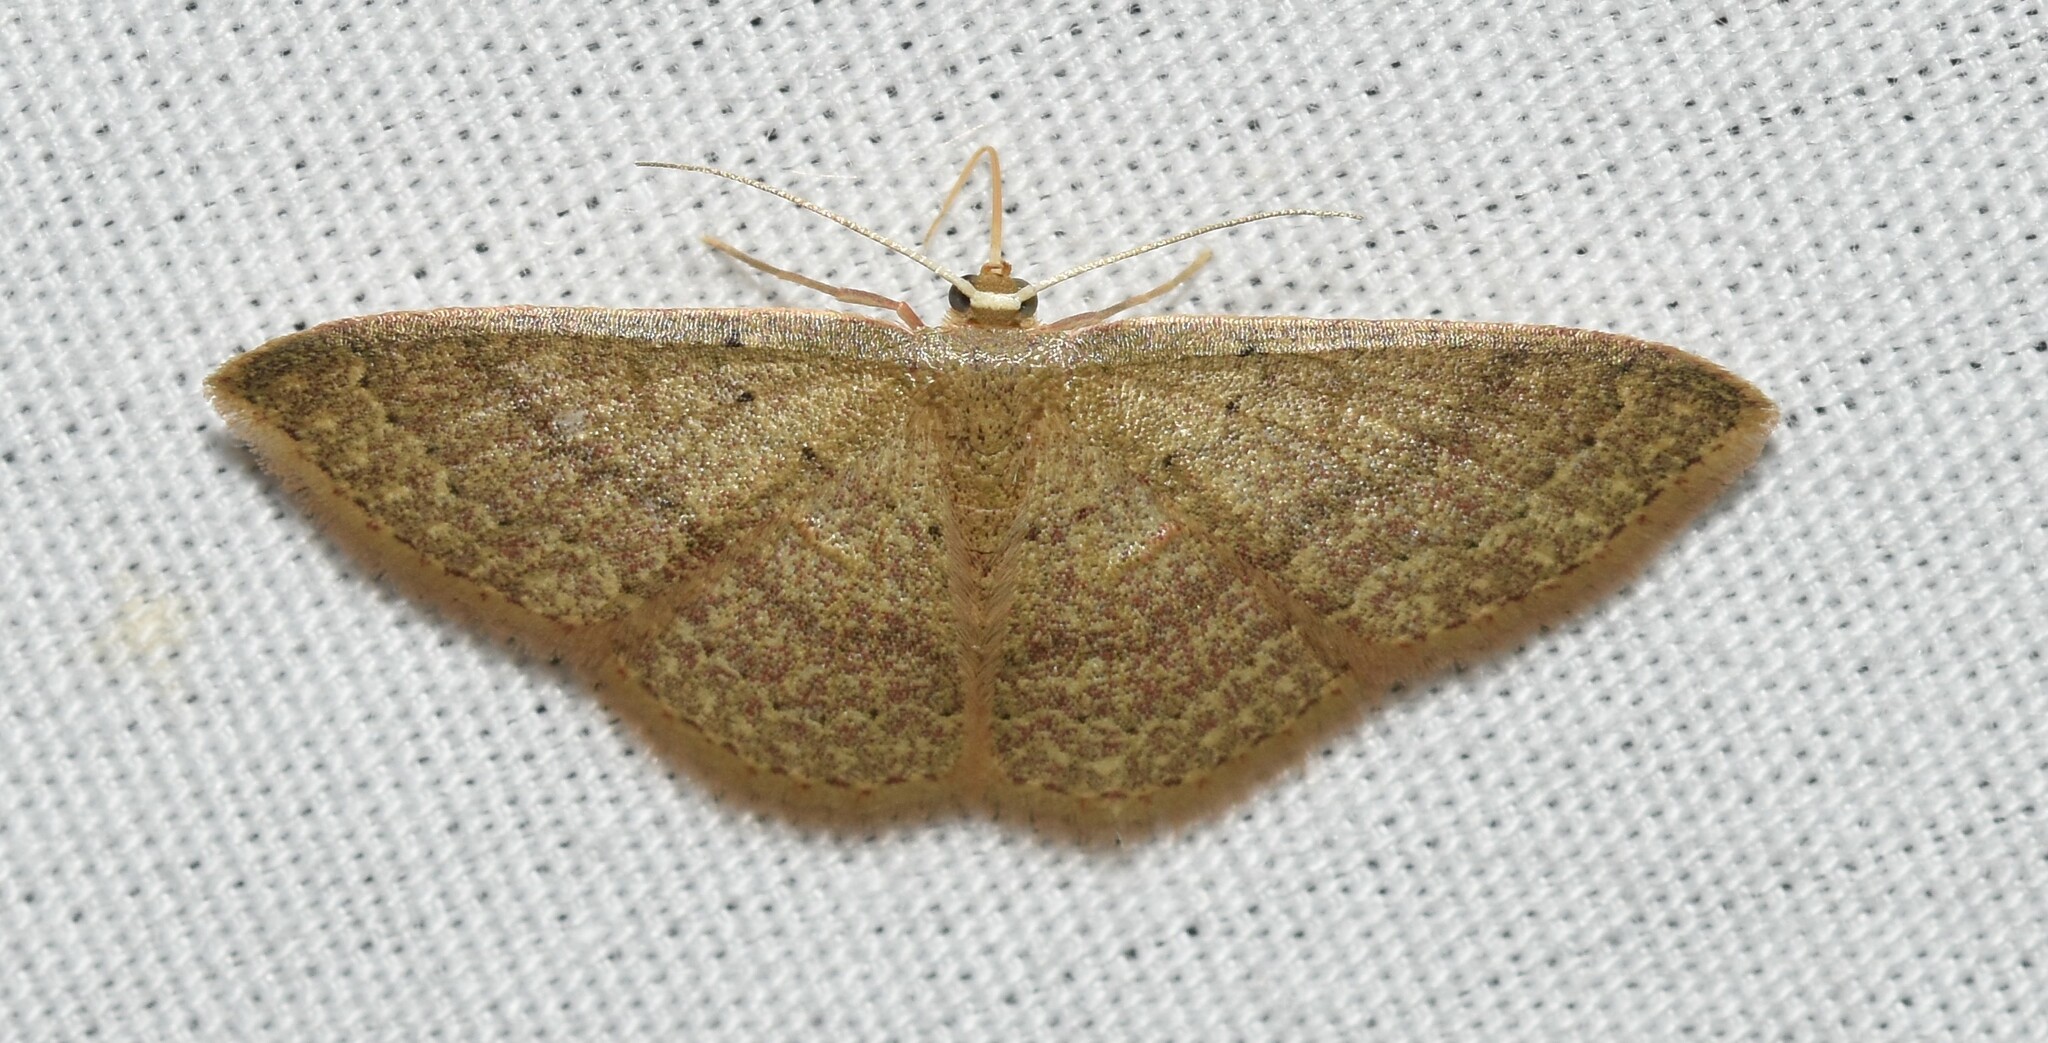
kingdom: Animalia
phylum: Arthropoda
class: Insecta
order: Lepidoptera
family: Geometridae
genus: Pleuroprucha
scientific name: Pleuroprucha insulsaria
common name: Common tan wave
